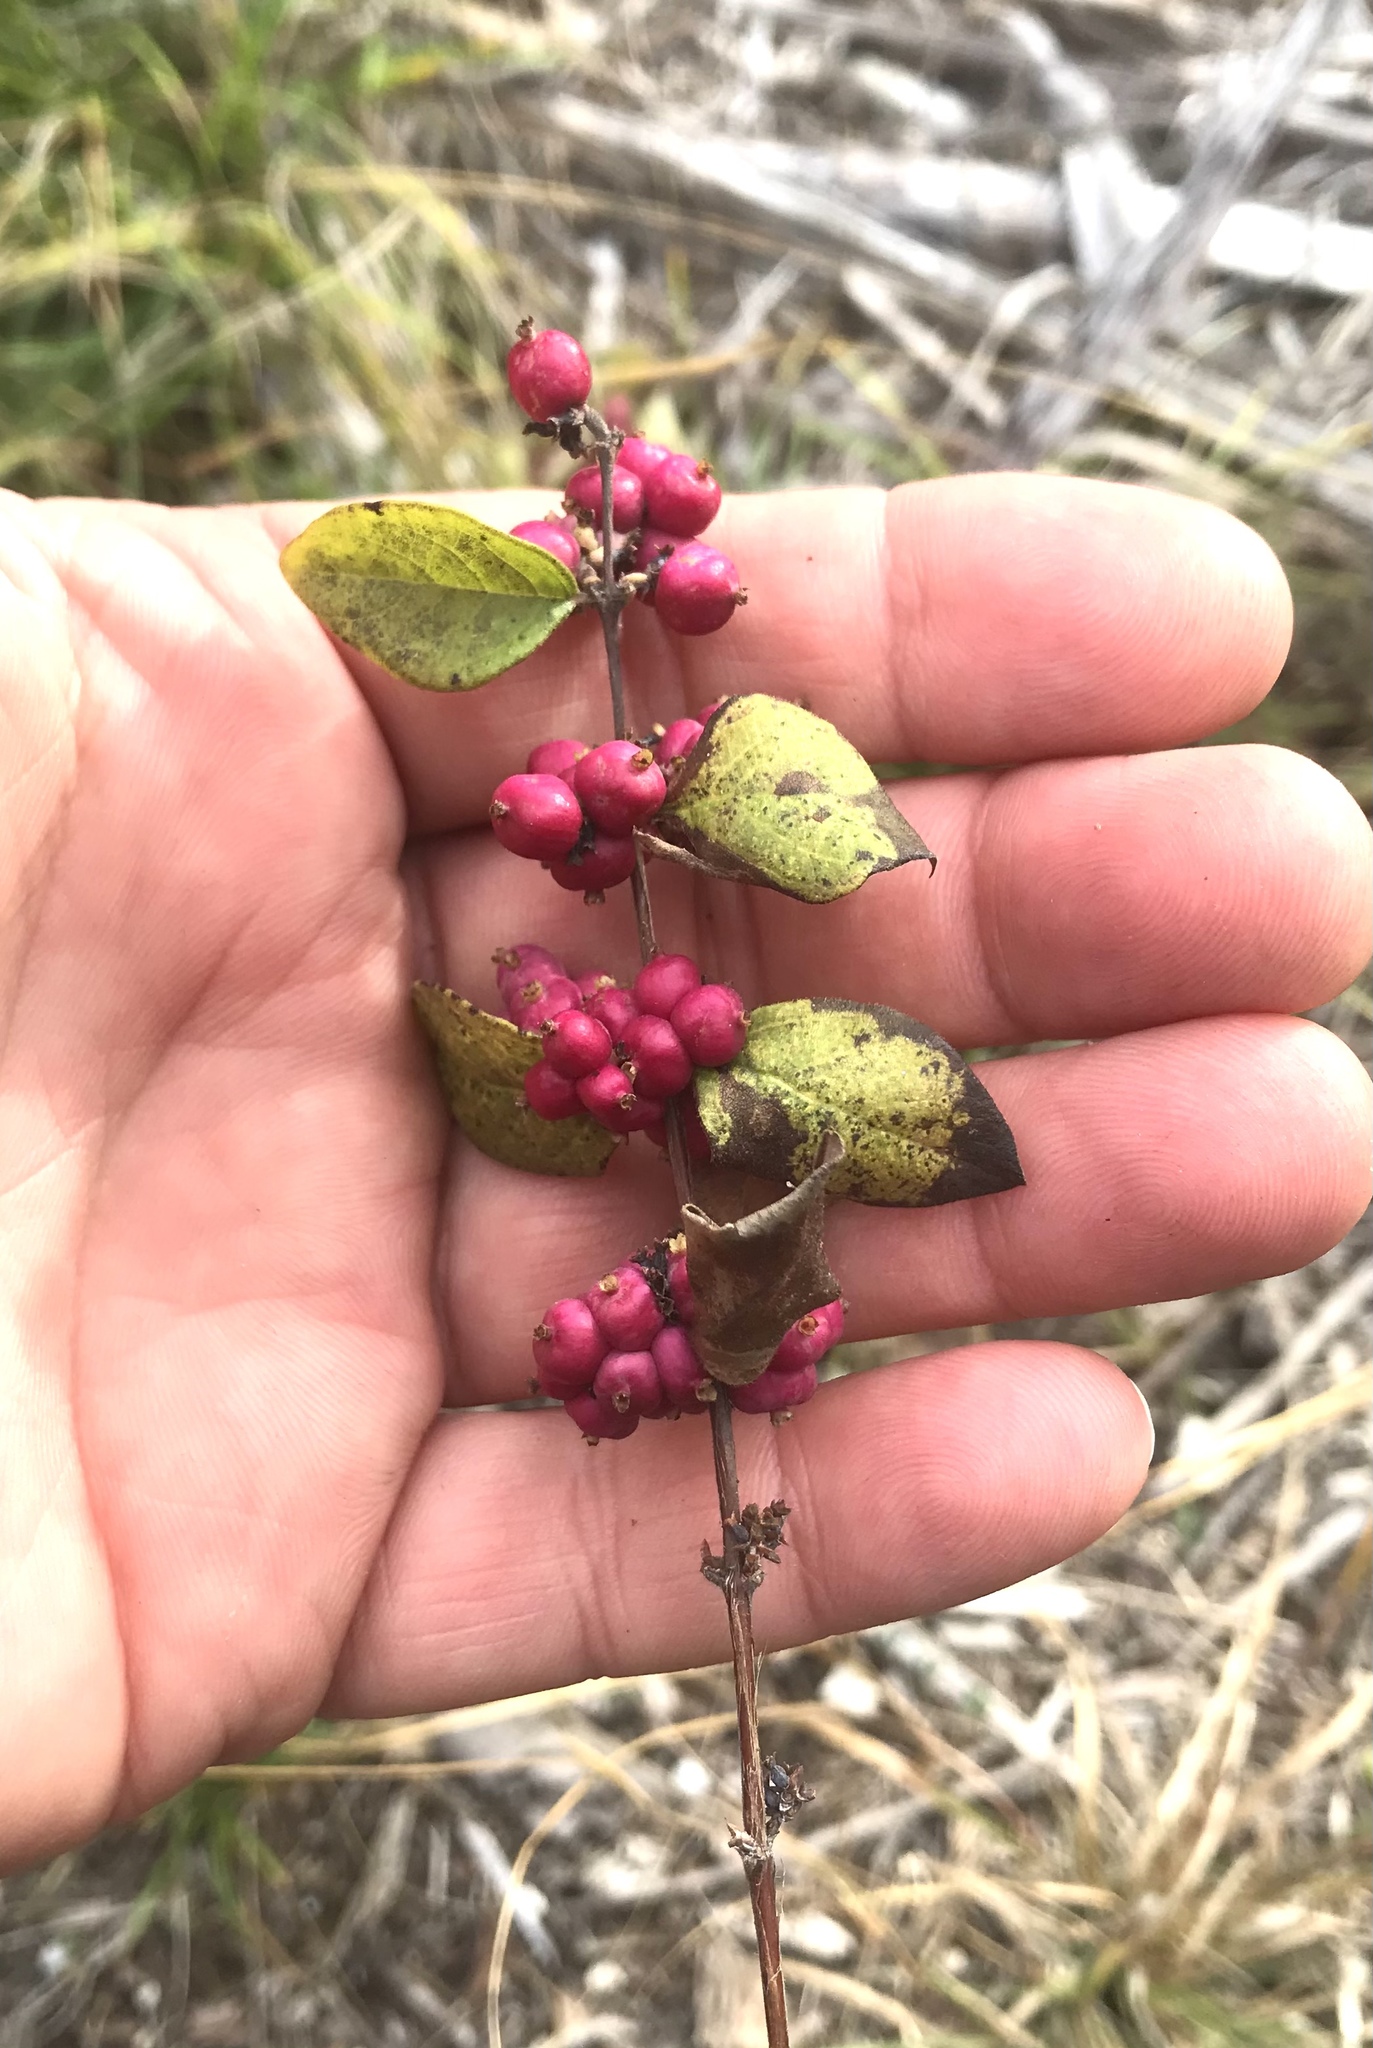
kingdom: Plantae
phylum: Tracheophyta
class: Magnoliopsida
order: Dipsacales
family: Caprifoliaceae
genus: Symphoricarpos
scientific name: Symphoricarpos orbiculatus
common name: Coralberry
